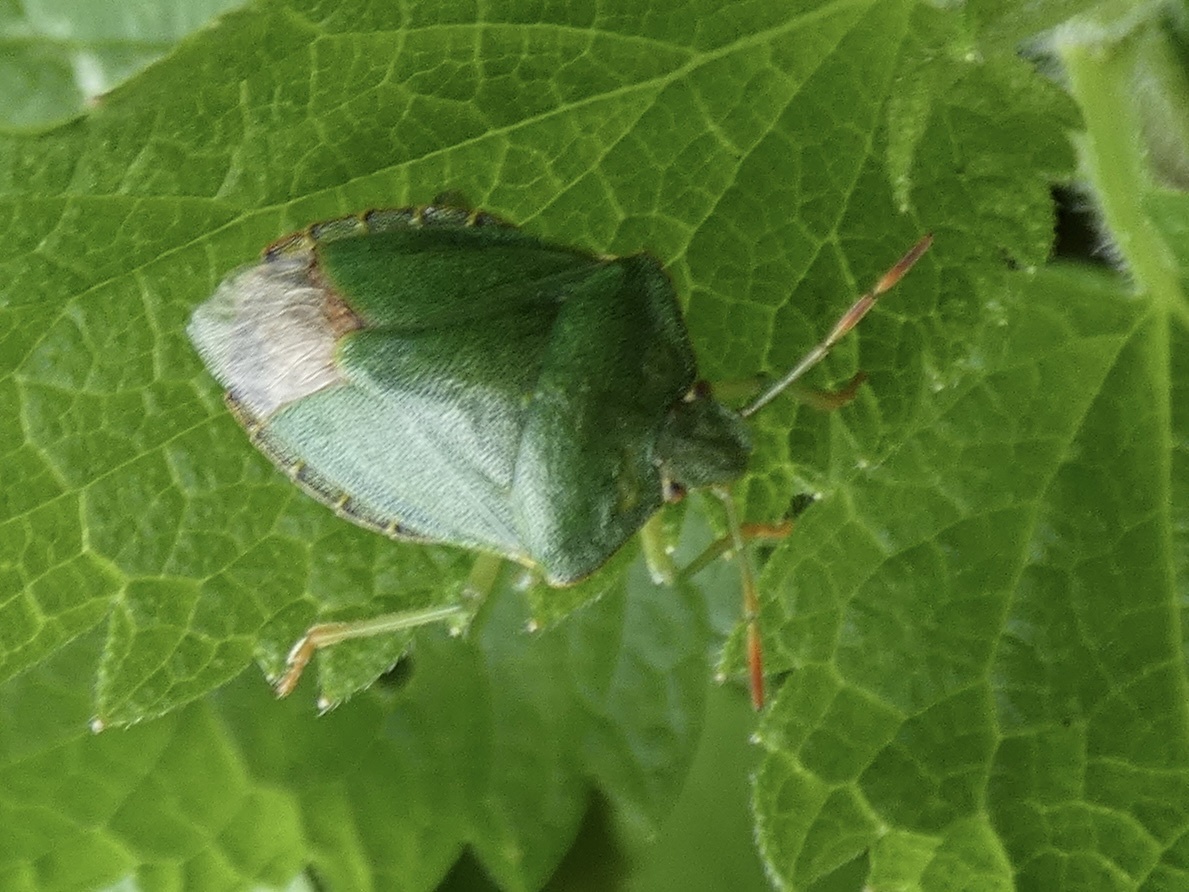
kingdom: Animalia
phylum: Arthropoda
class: Insecta
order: Hemiptera
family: Pentatomidae
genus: Palomena
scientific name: Palomena prasina
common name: Green shieldbug
